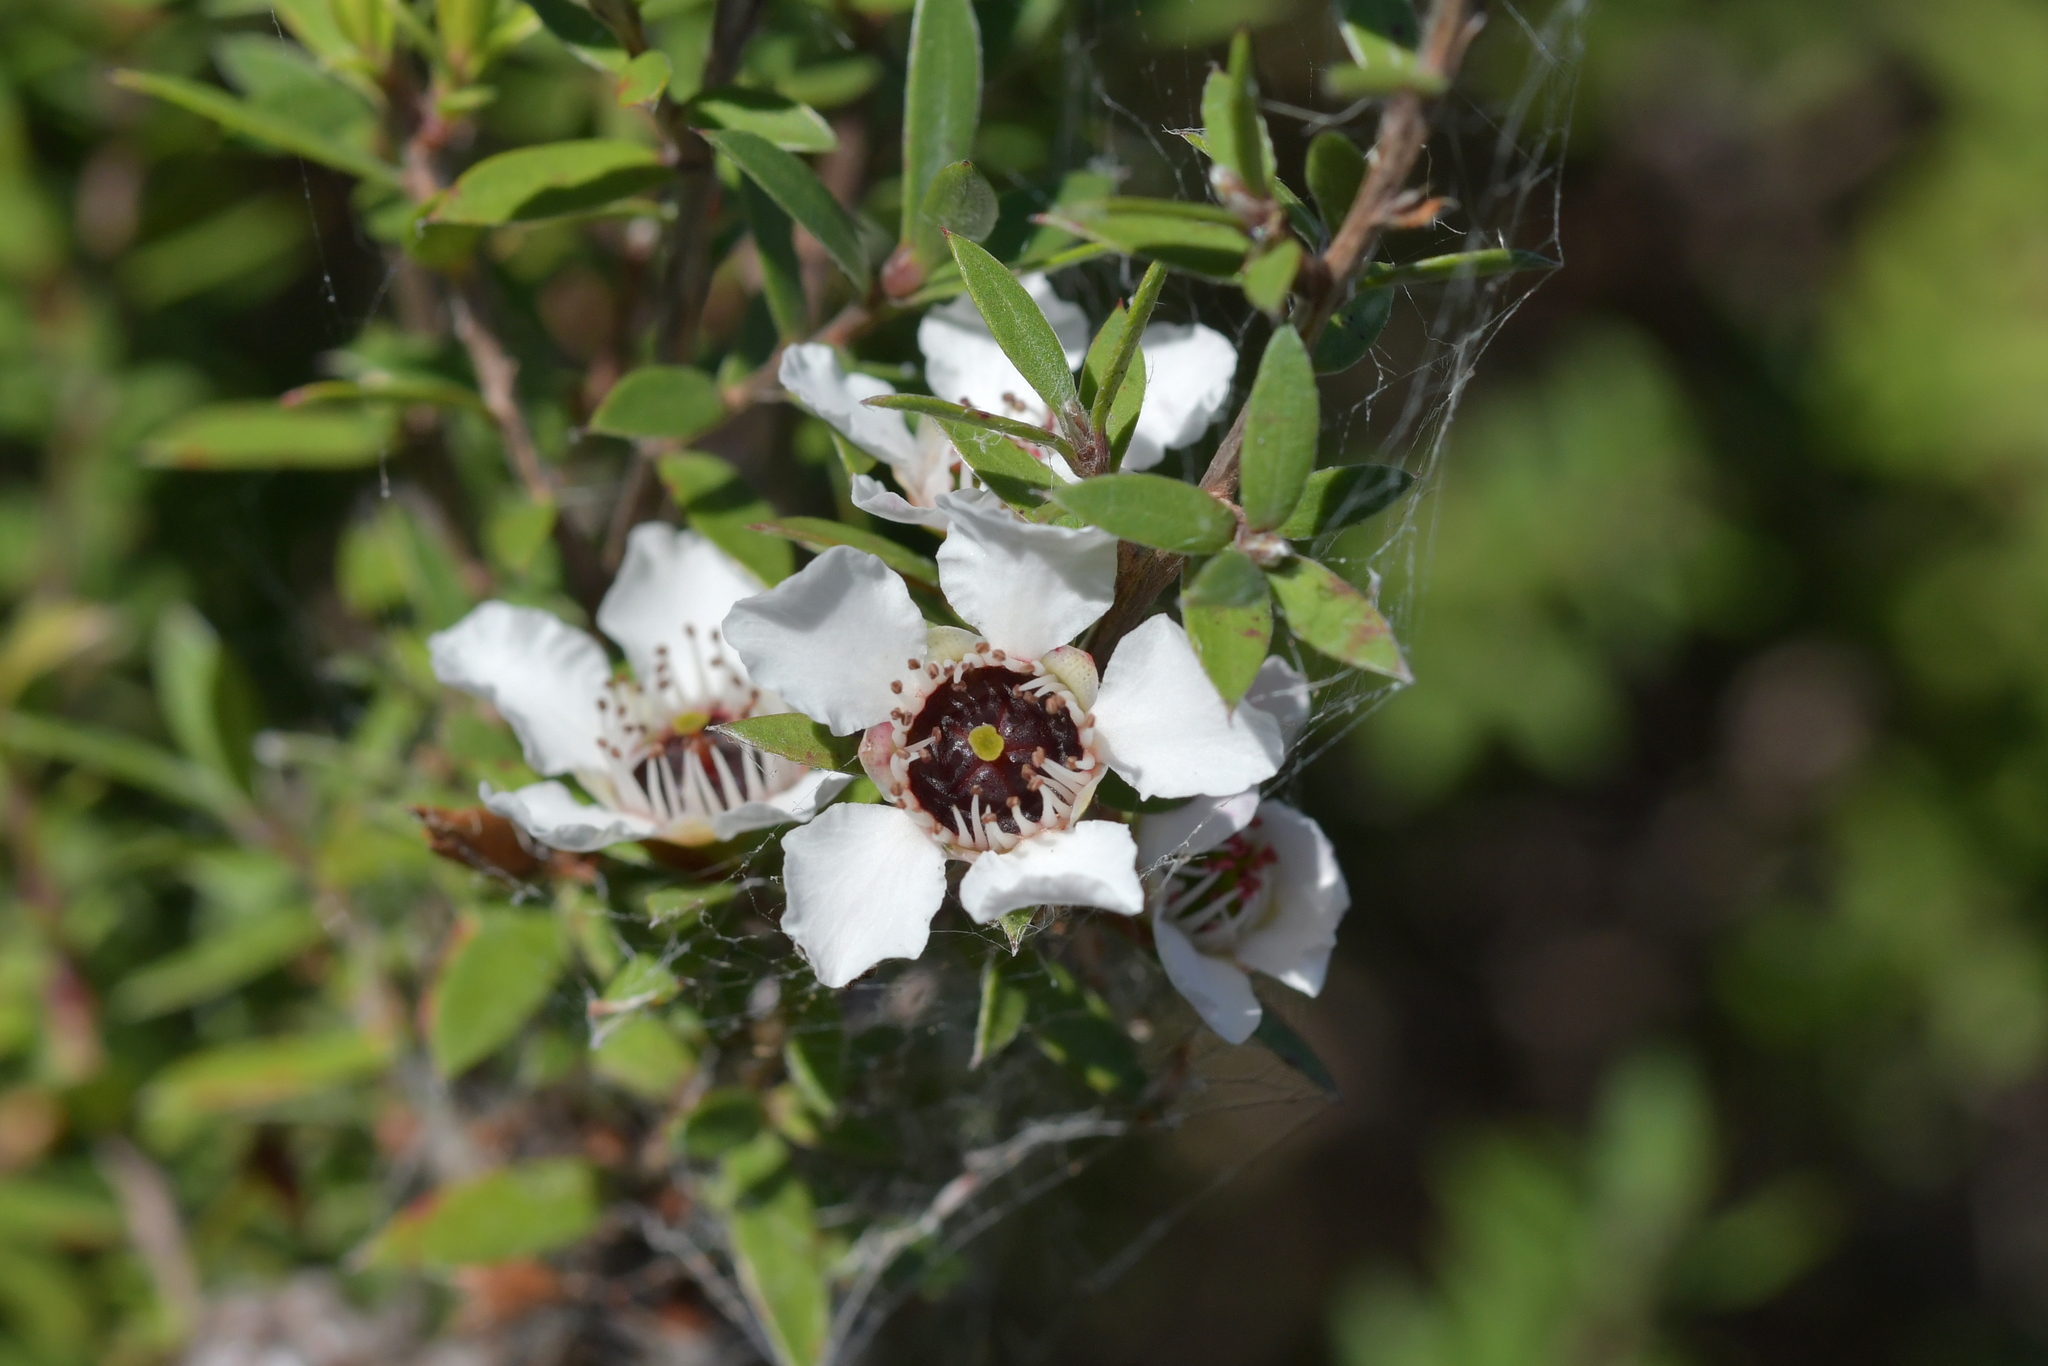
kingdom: Plantae
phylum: Tracheophyta
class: Magnoliopsida
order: Myrtales
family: Myrtaceae
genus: Leptospermum
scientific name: Leptospermum scoparium
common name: Broom tea-tree
